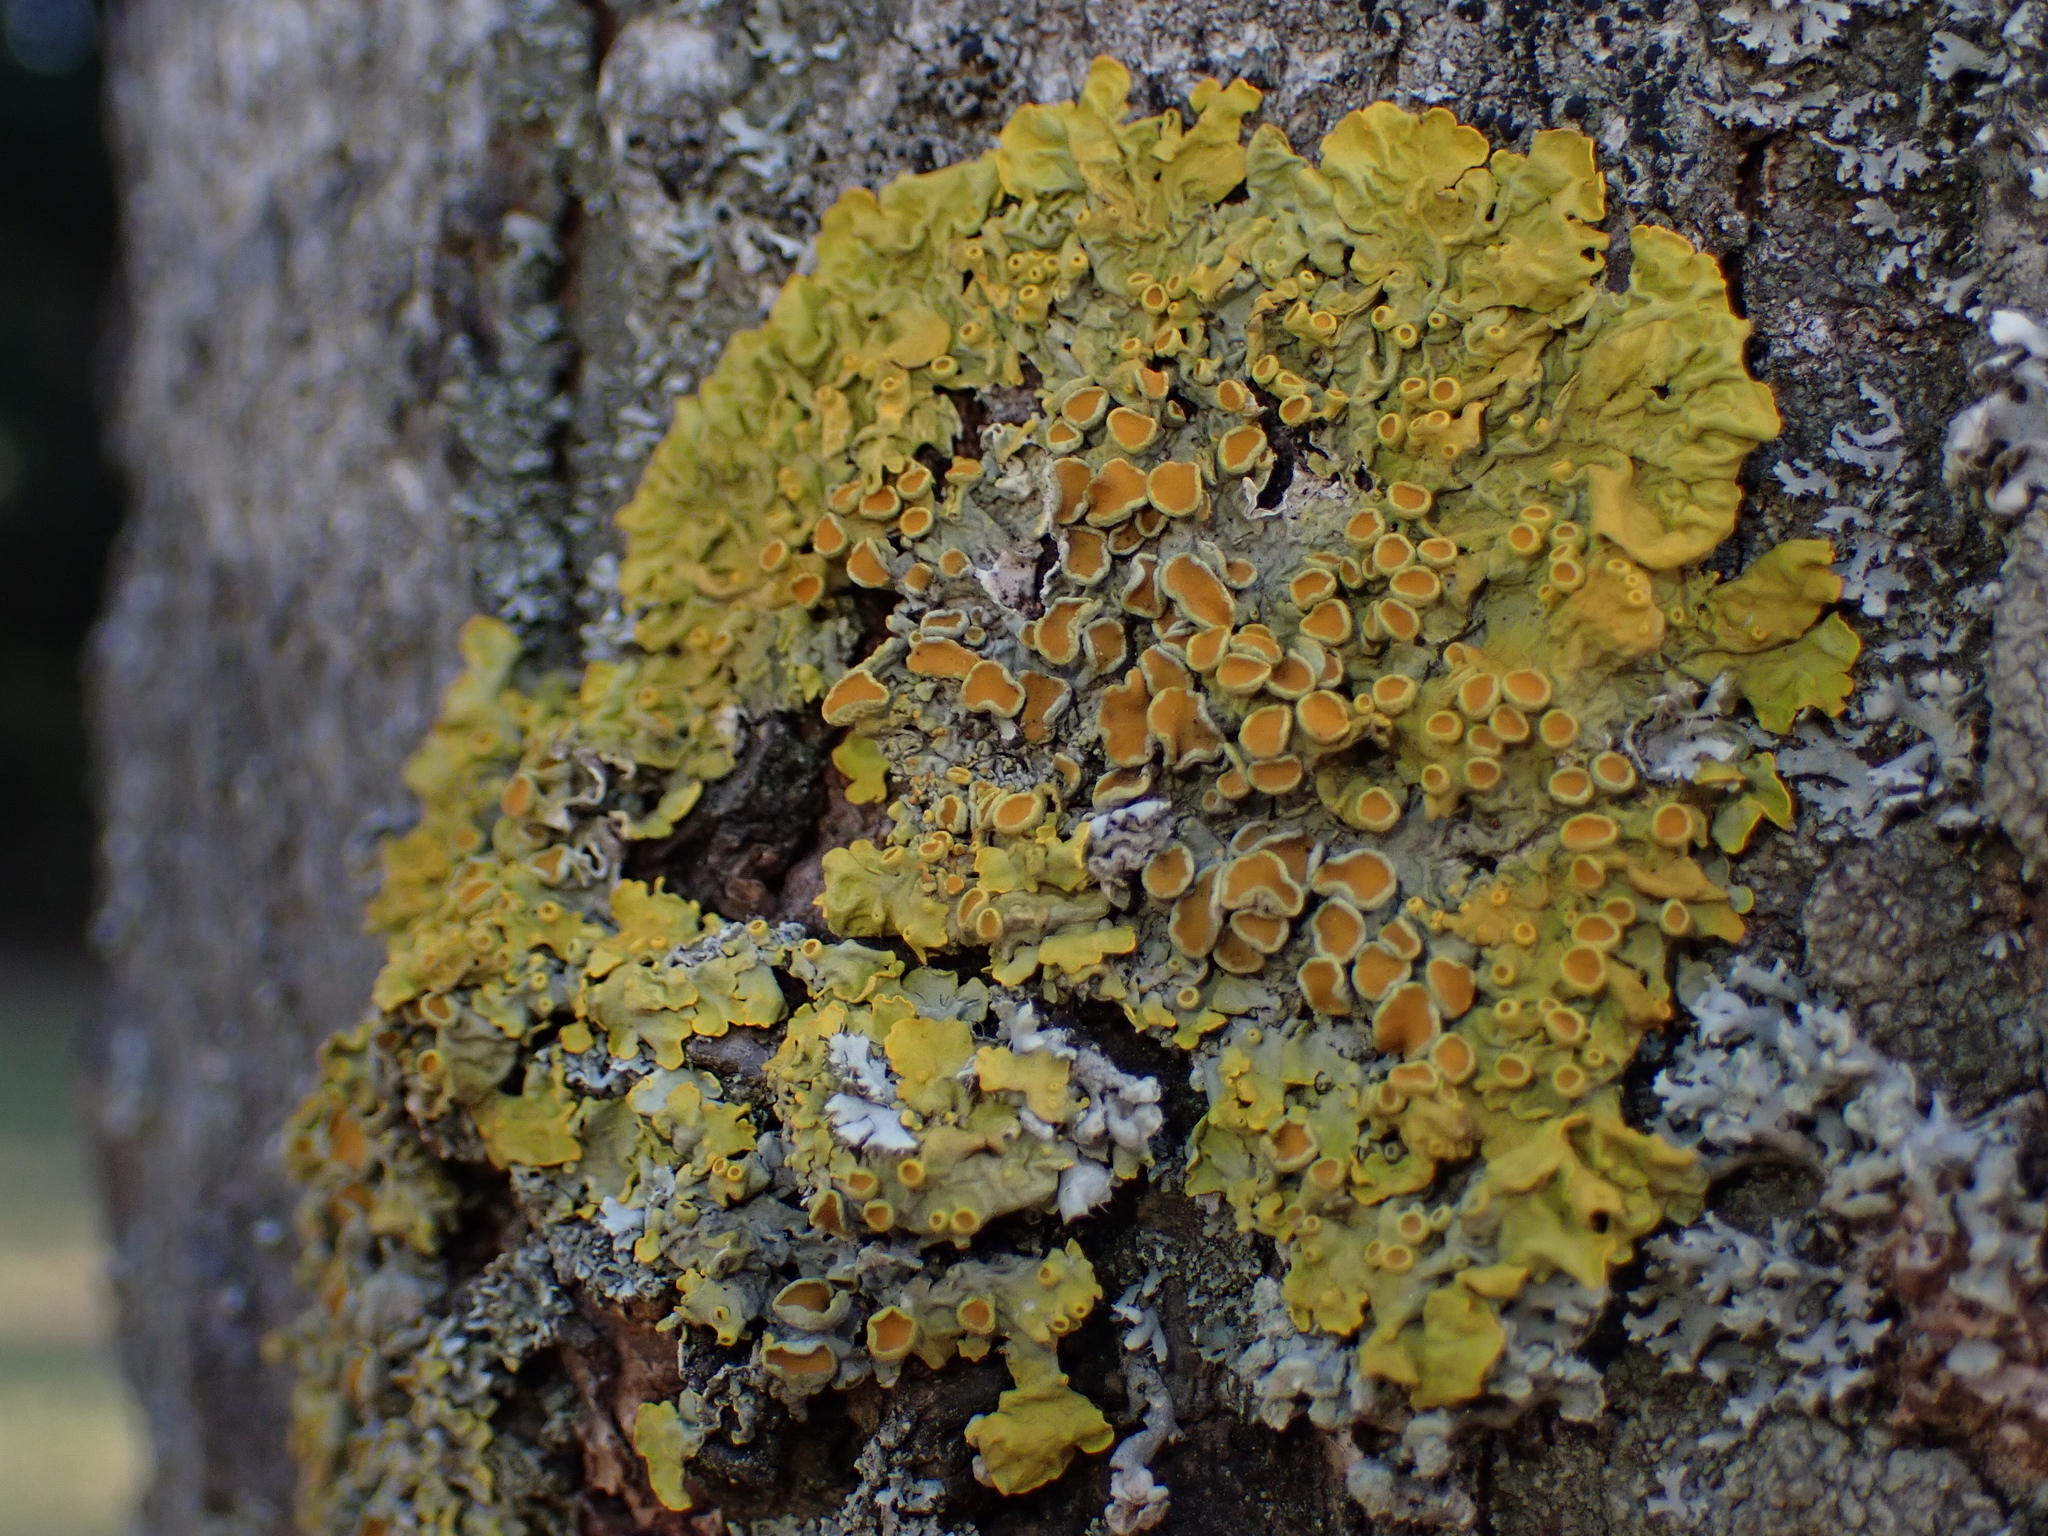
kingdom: Fungi
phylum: Ascomycota
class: Lecanoromycetes
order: Teloschistales
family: Teloschistaceae
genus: Xanthoria
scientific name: Xanthoria parietina
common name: Common orange lichen
